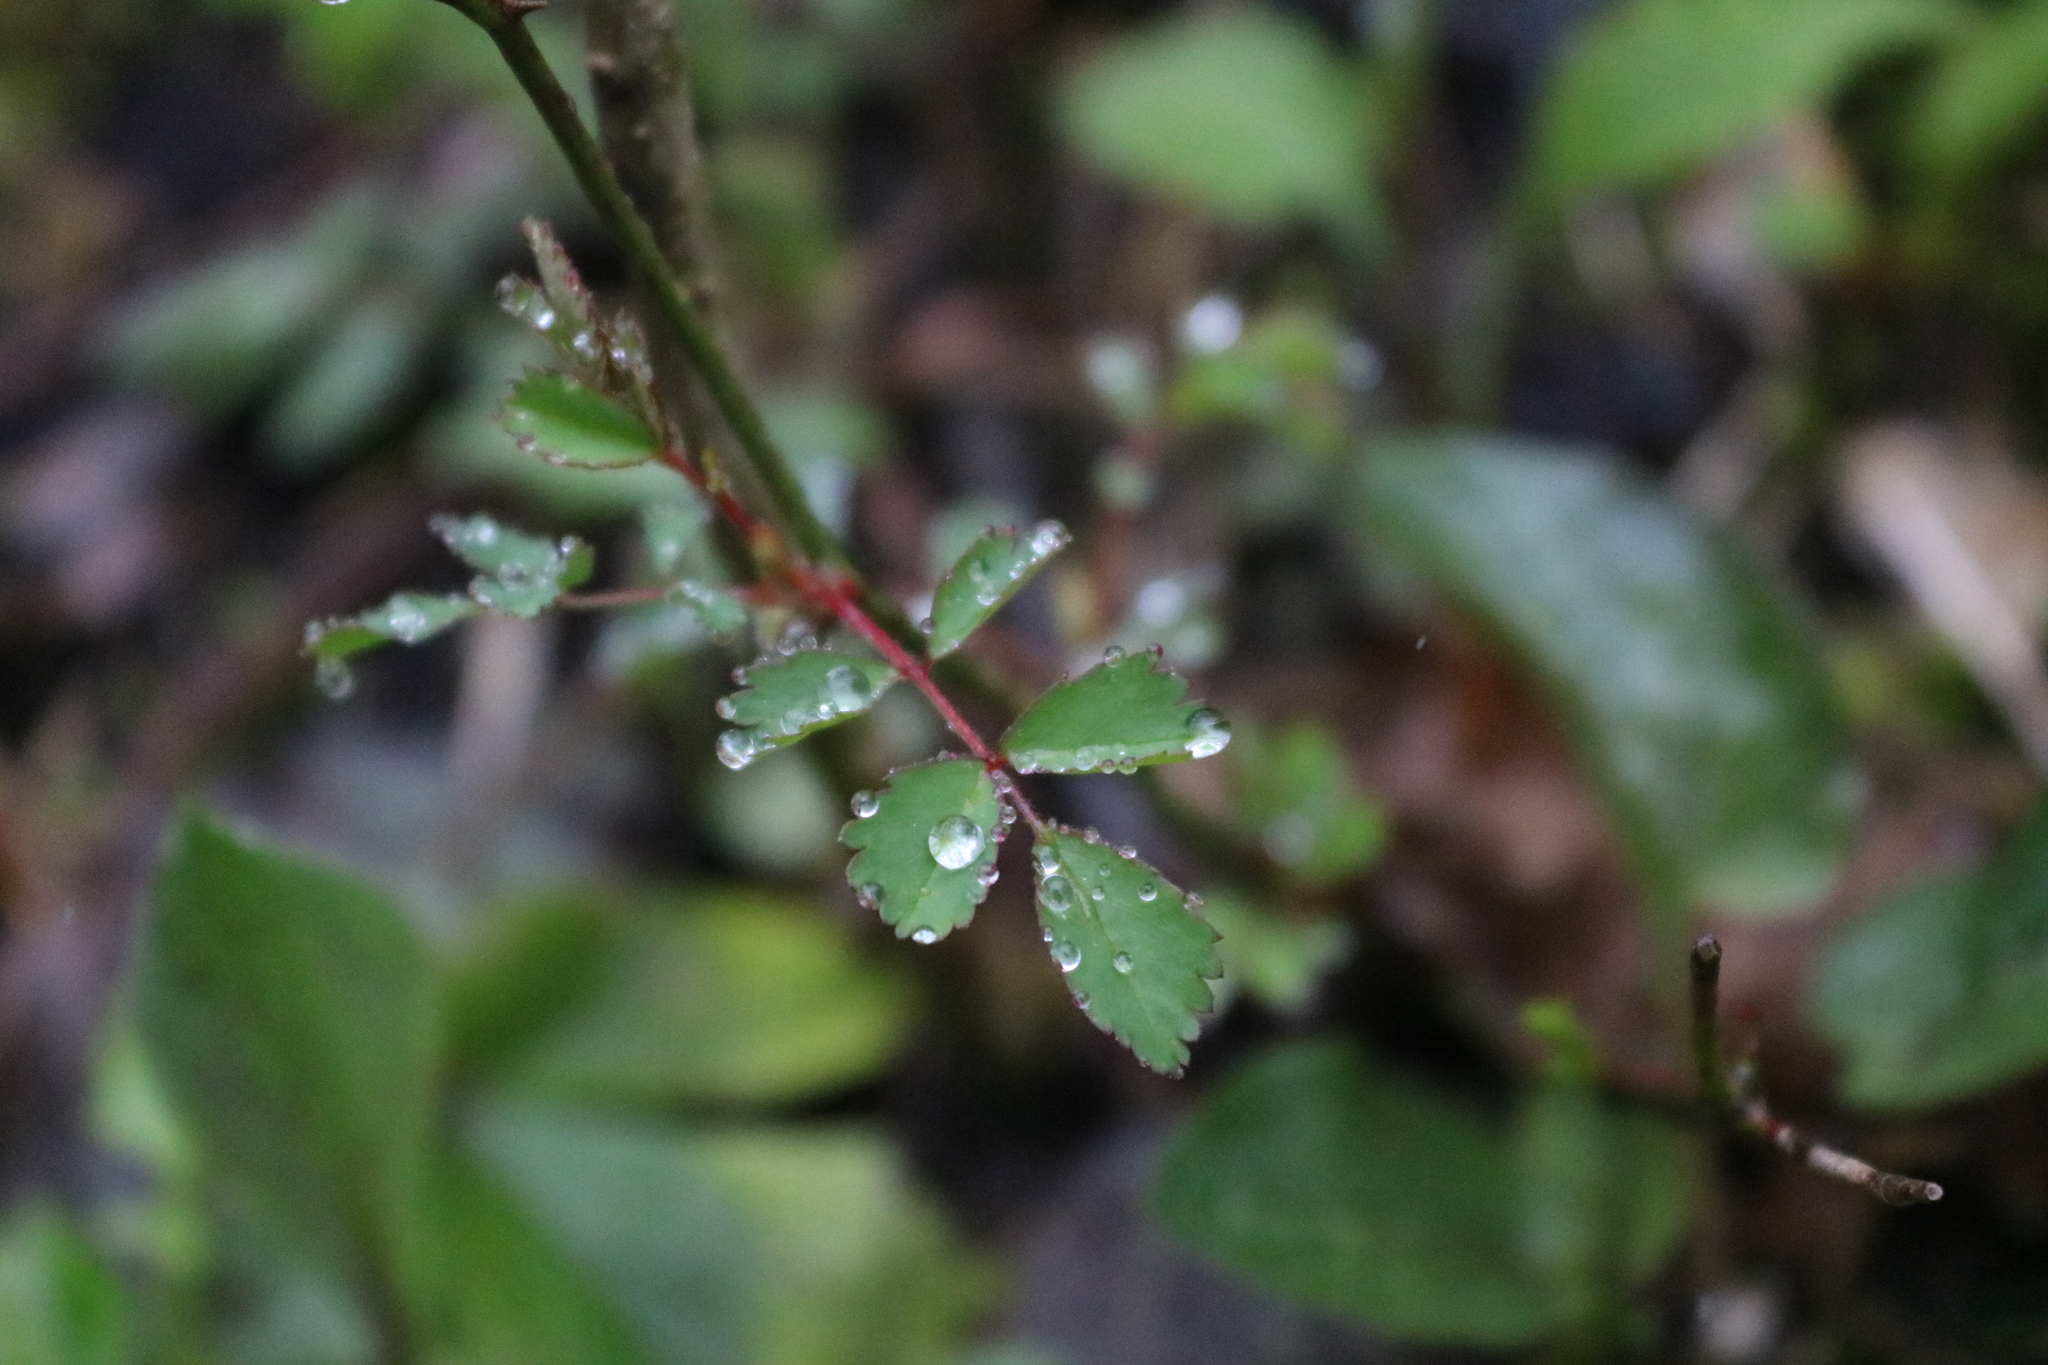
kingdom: Plantae
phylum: Tracheophyta
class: Magnoliopsida
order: Rosales
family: Rosaceae
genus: Rosa
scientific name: Rosa multiflora
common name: Multiflora rose
